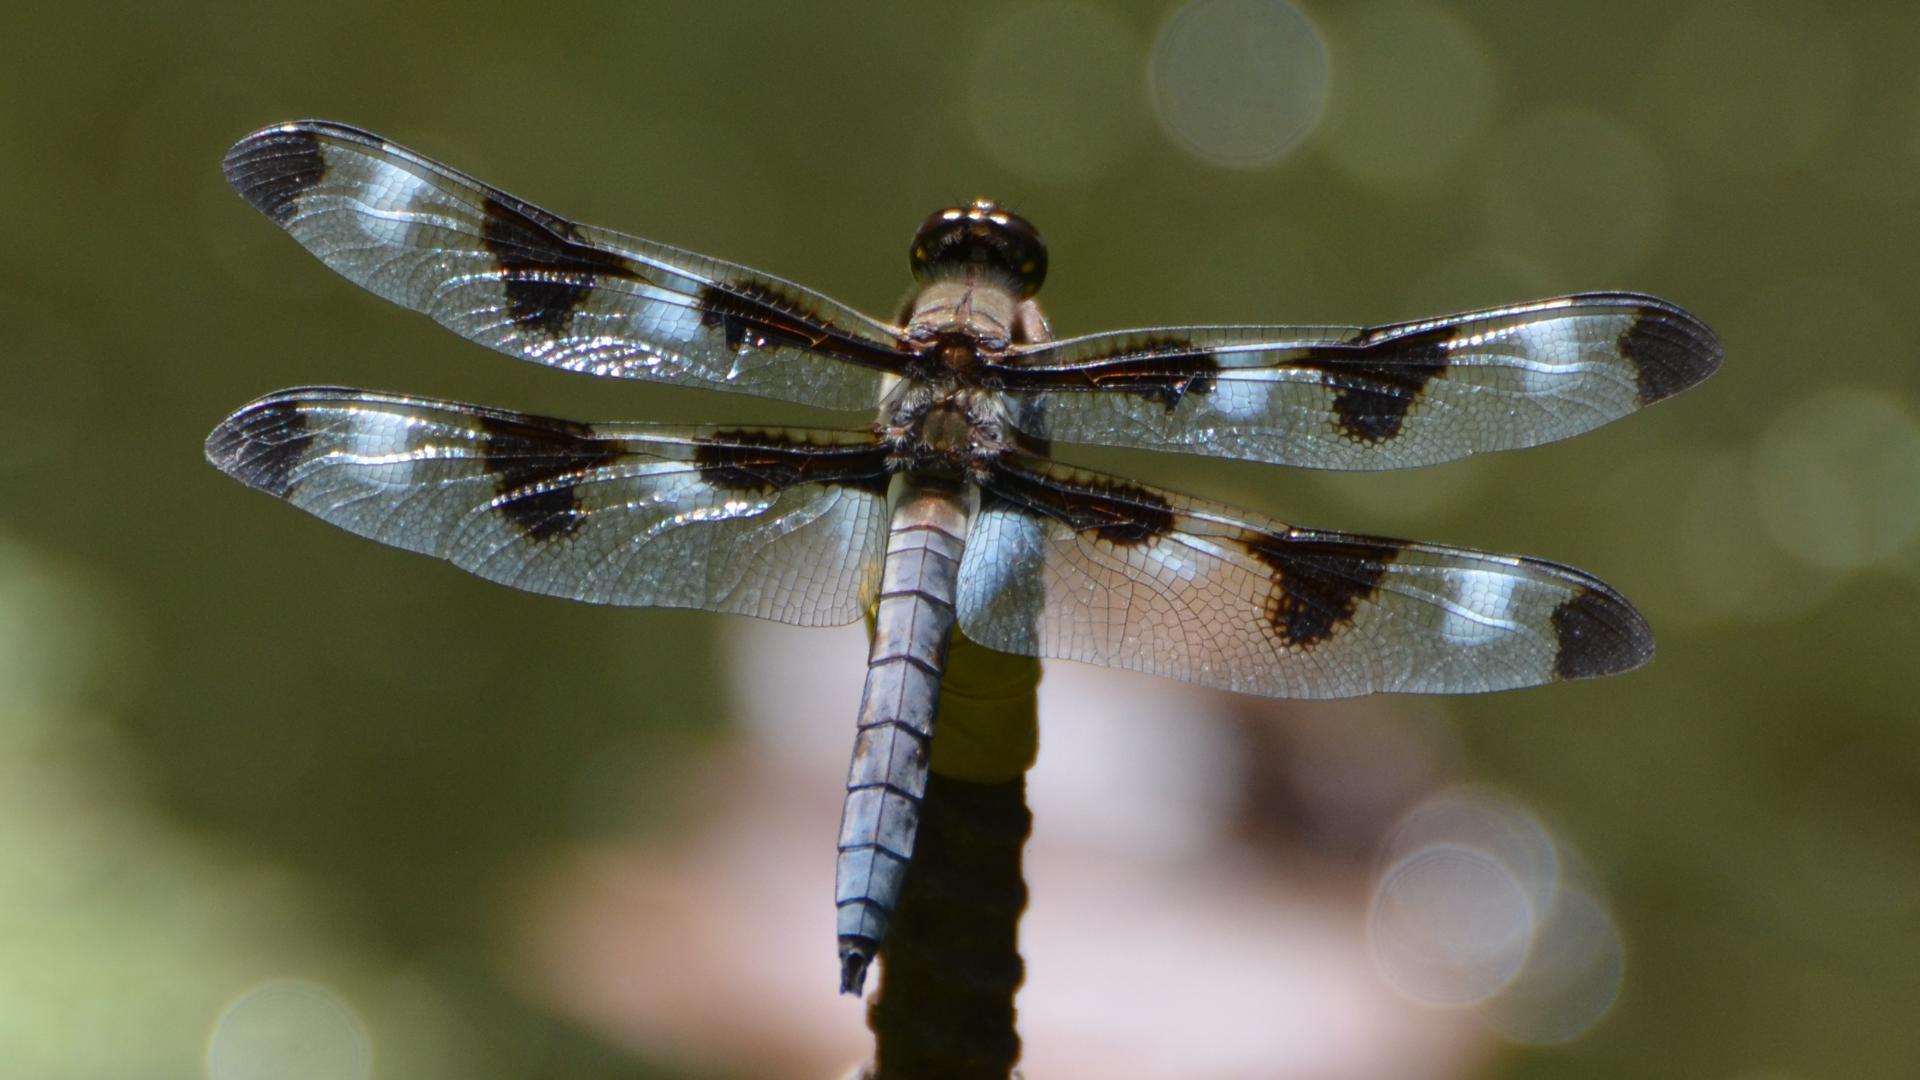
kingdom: Animalia
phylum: Arthropoda
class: Insecta
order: Odonata
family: Libellulidae
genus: Libellula
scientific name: Libellula pulchella
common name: Twelve-spotted skimmer
